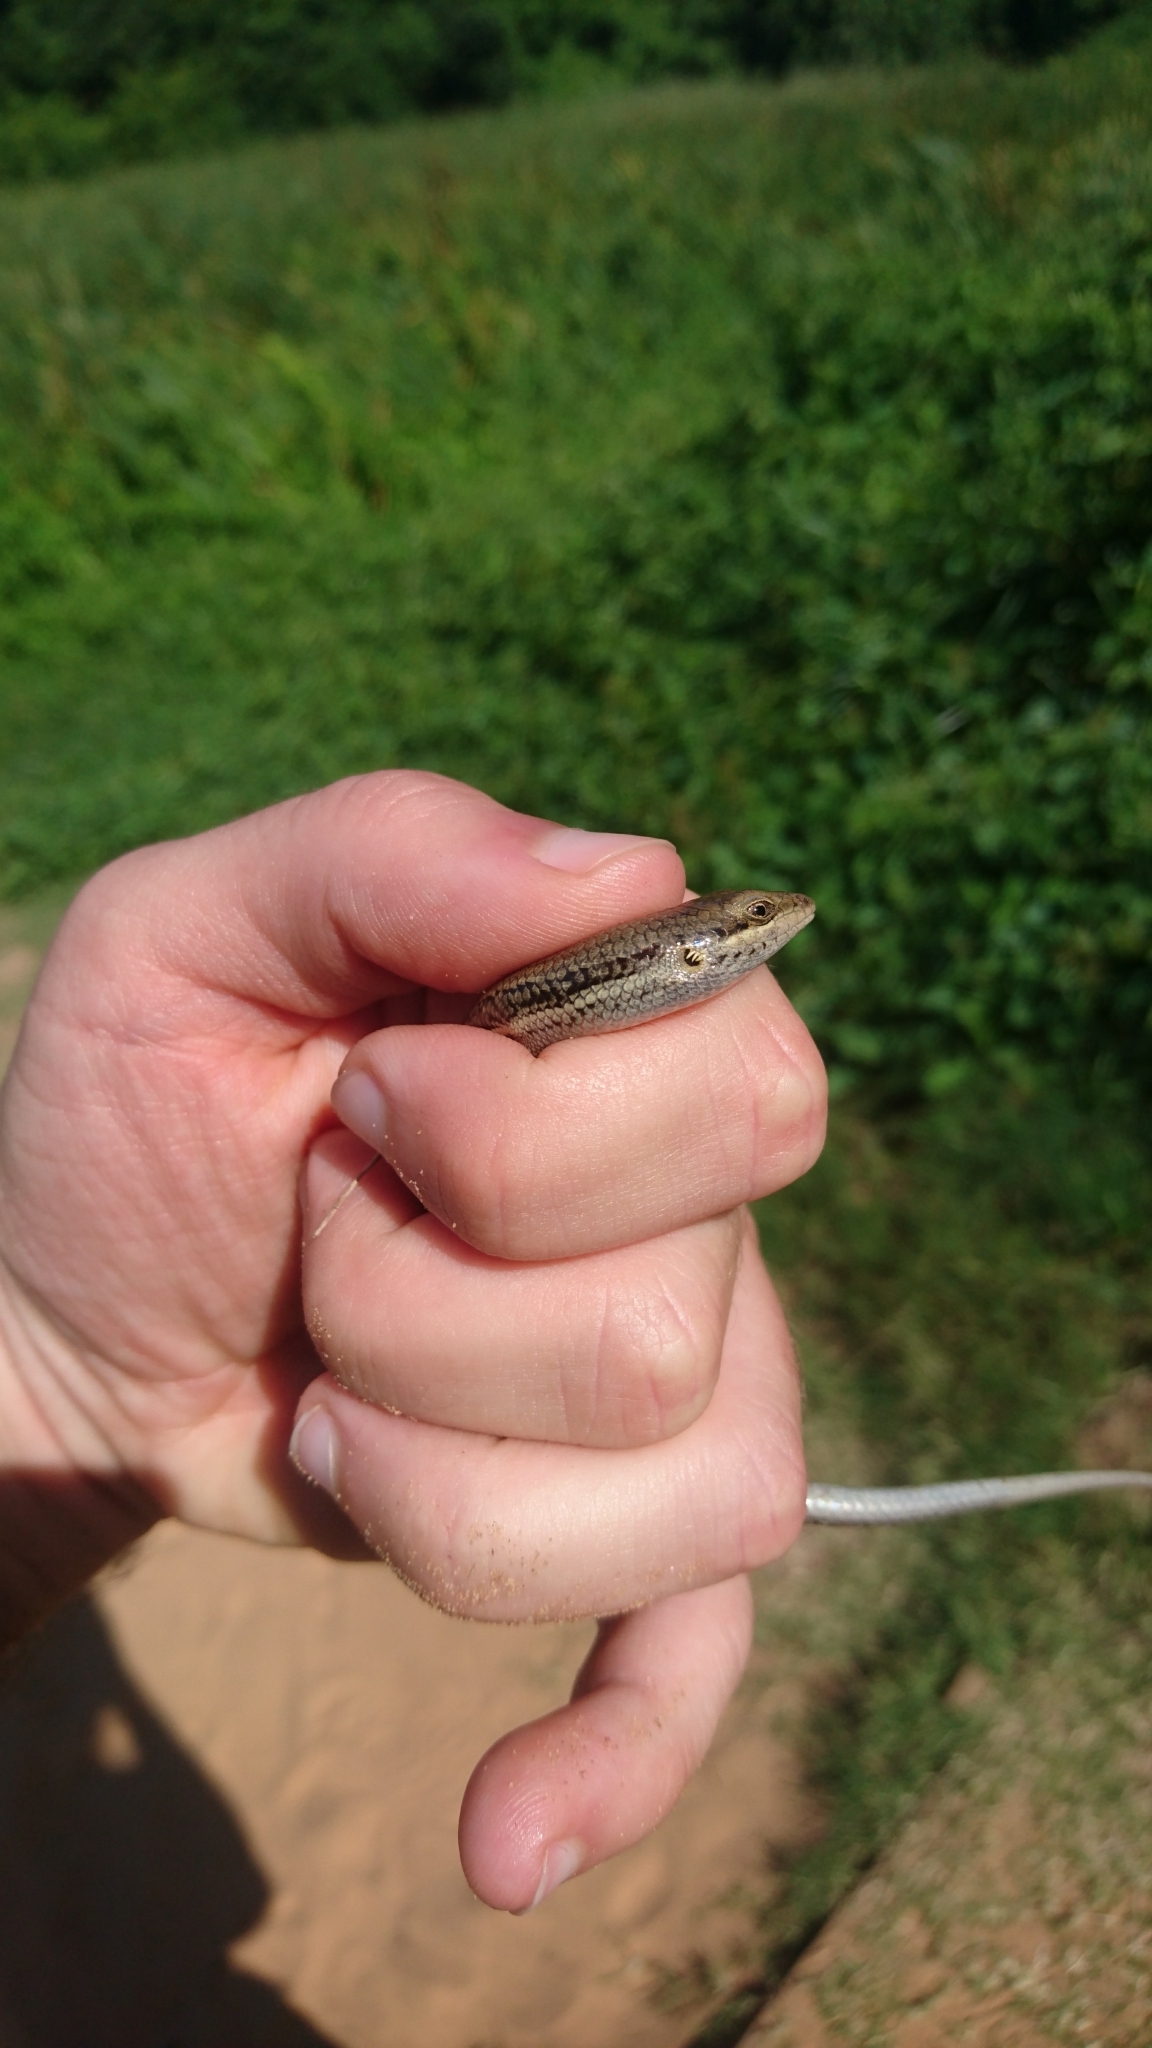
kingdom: Animalia
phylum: Chordata
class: Squamata
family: Scincidae
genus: Trachylepis
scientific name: Trachylepis depressa
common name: Eastern coastal skink
